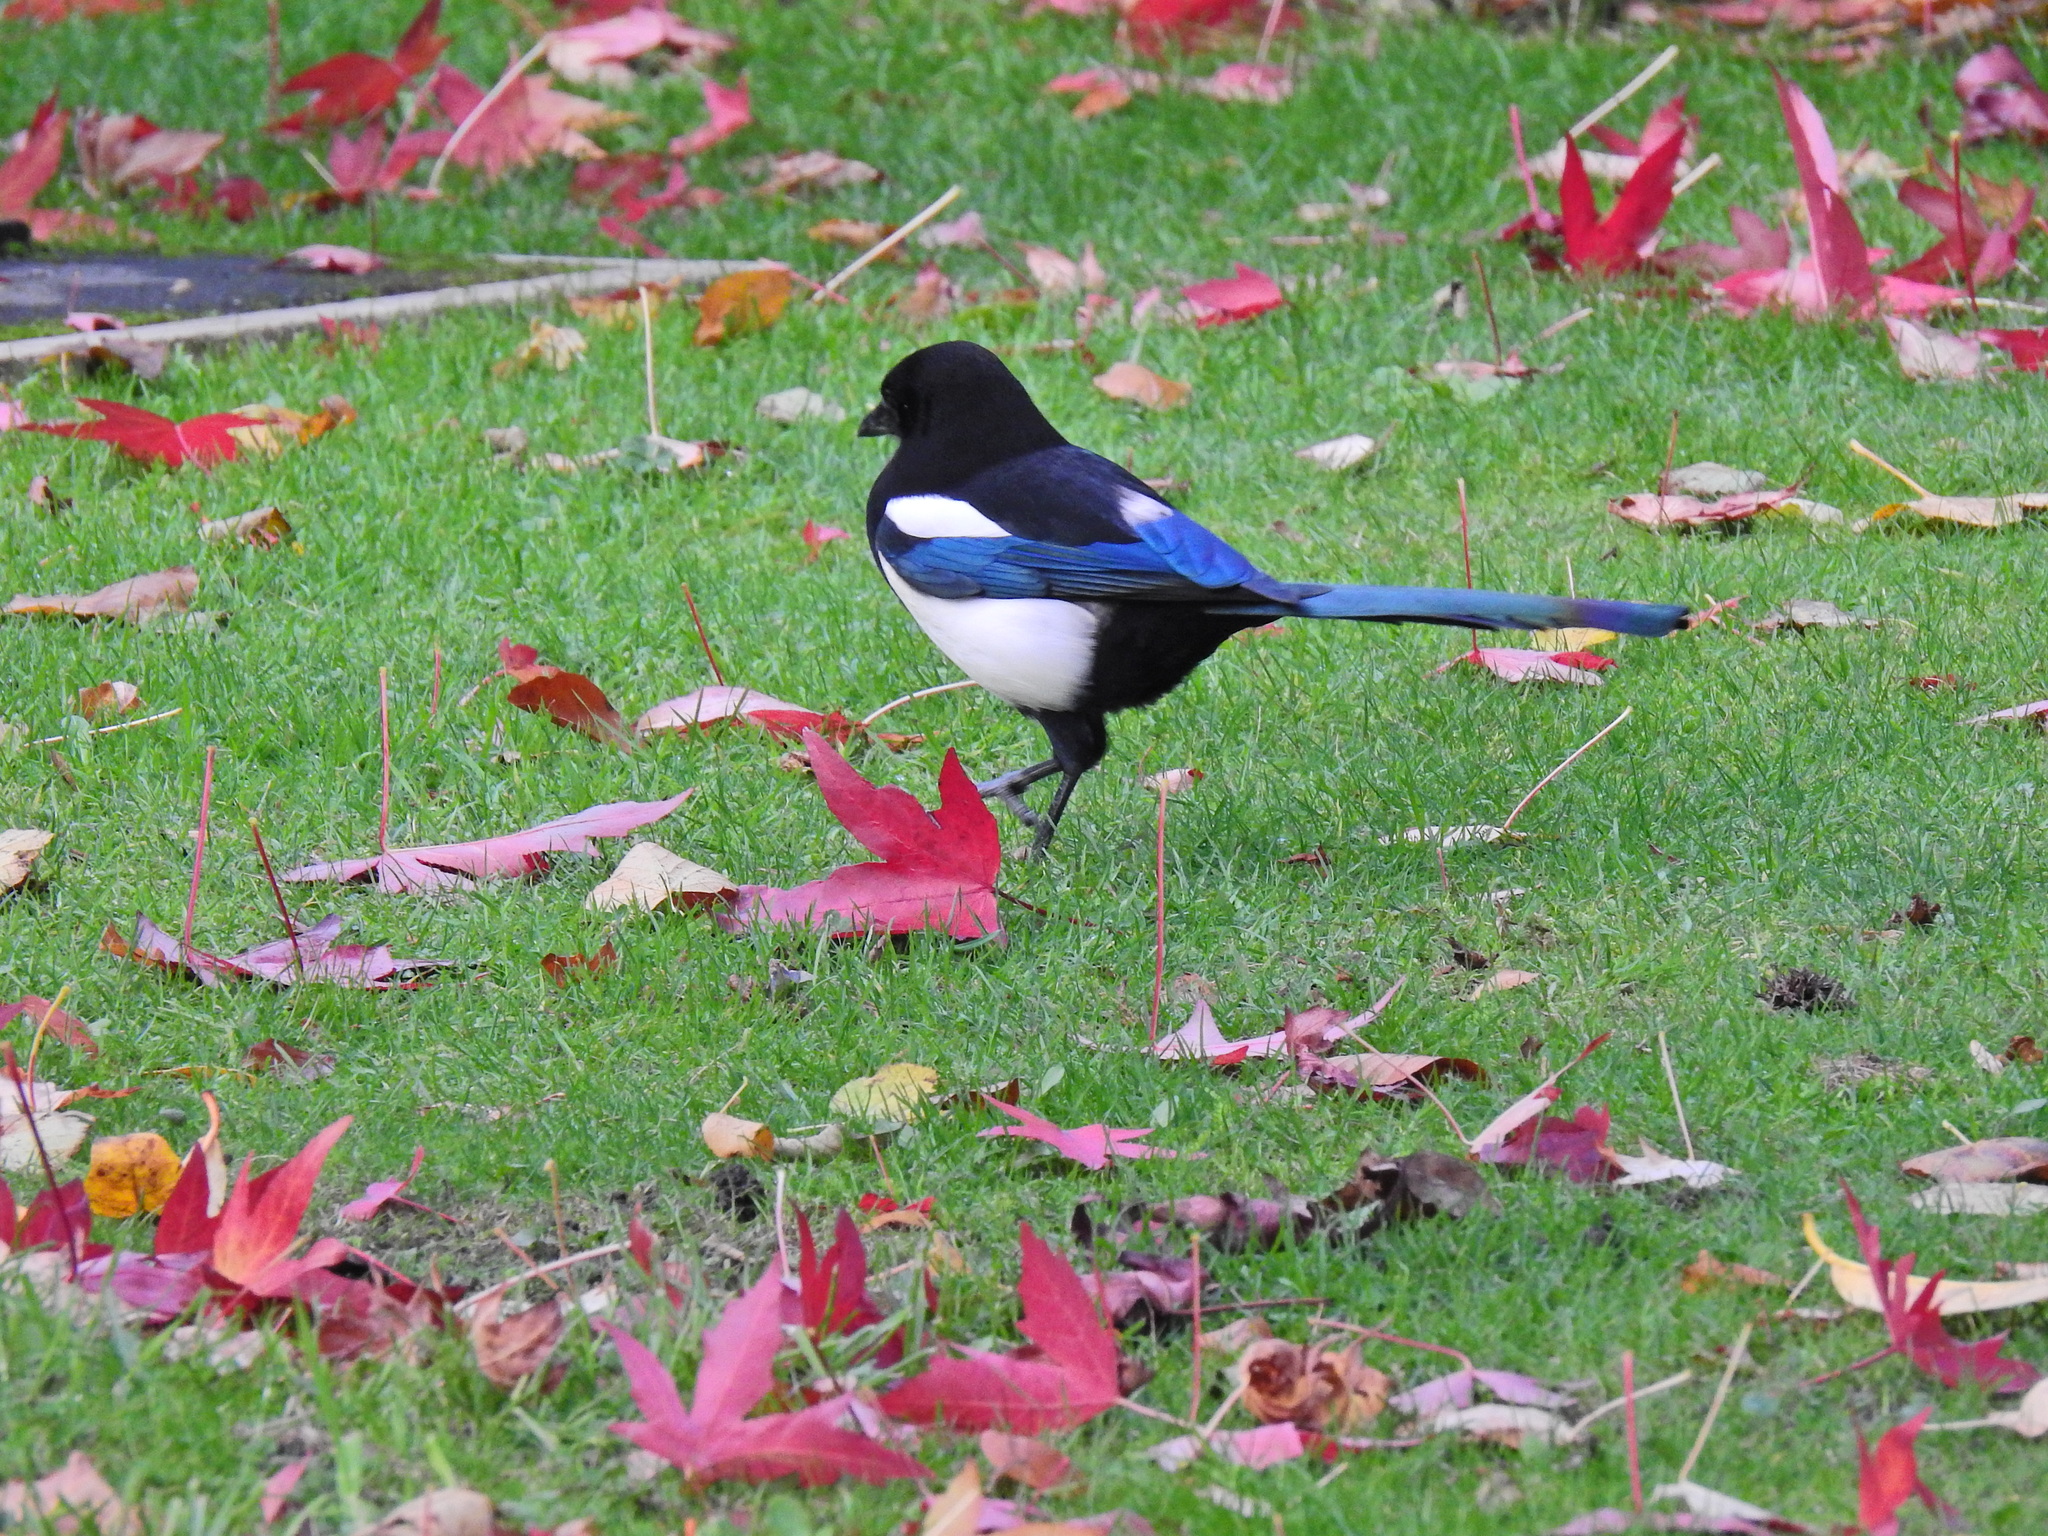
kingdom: Animalia
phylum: Chordata
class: Aves
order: Passeriformes
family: Corvidae
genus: Pica
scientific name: Pica pica
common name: Eurasian magpie
